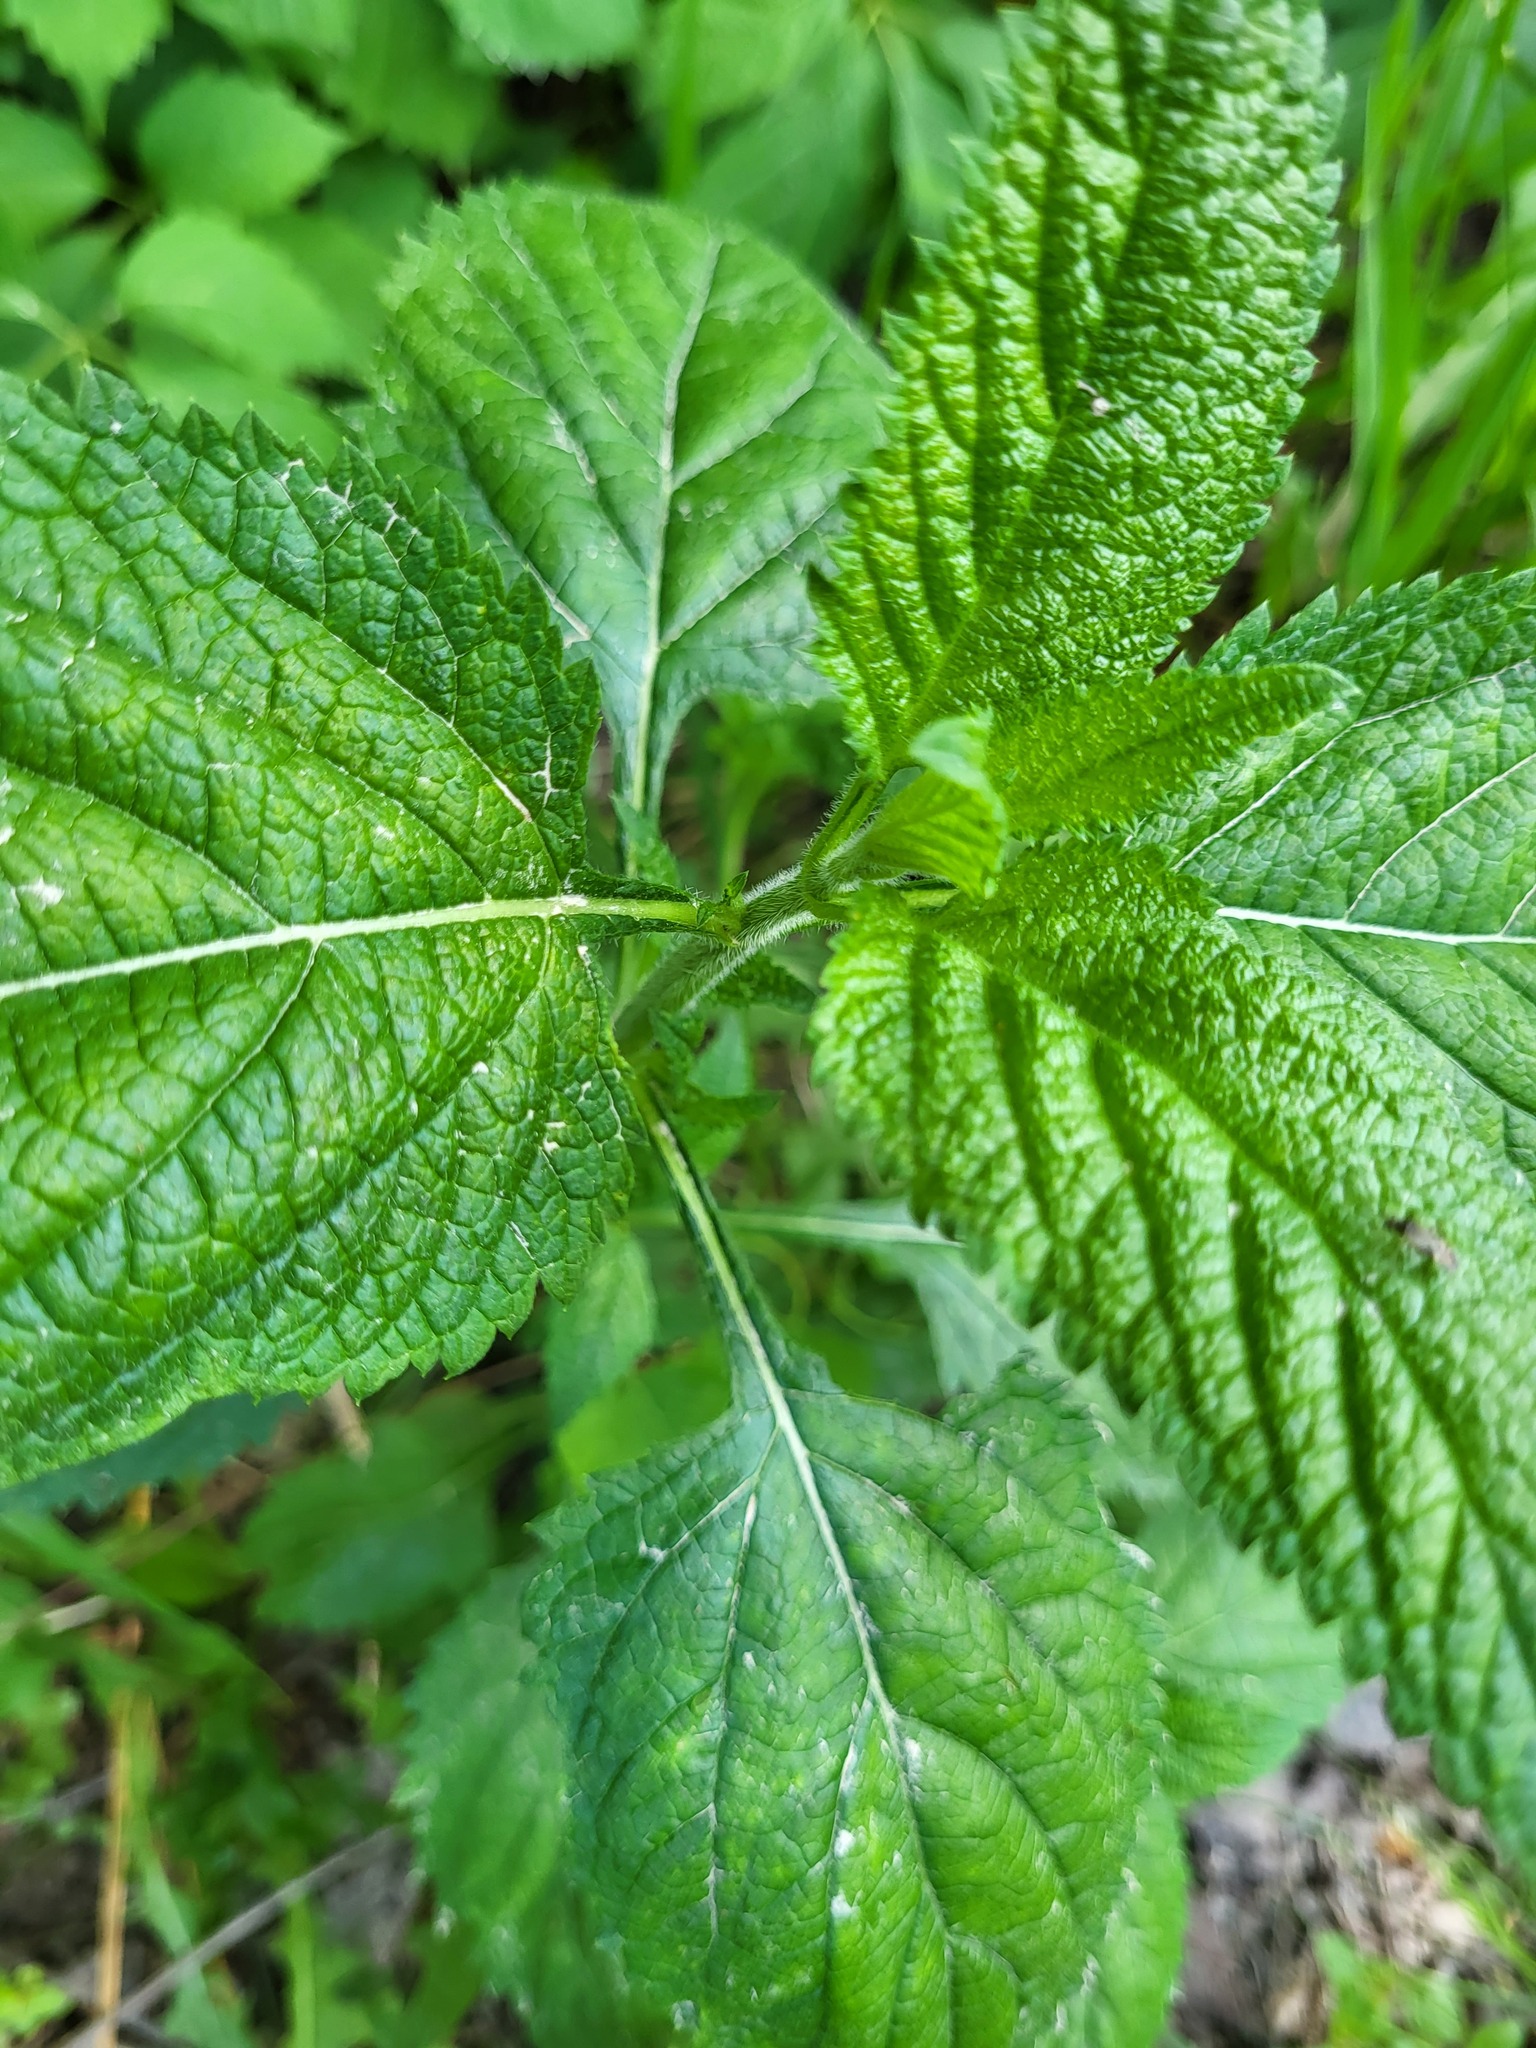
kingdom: Plantae
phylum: Tracheophyta
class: Magnoliopsida
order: Lamiales
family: Verbenaceae
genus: Verbena
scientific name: Verbena urticifolia
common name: Nettle-leaved vervain
